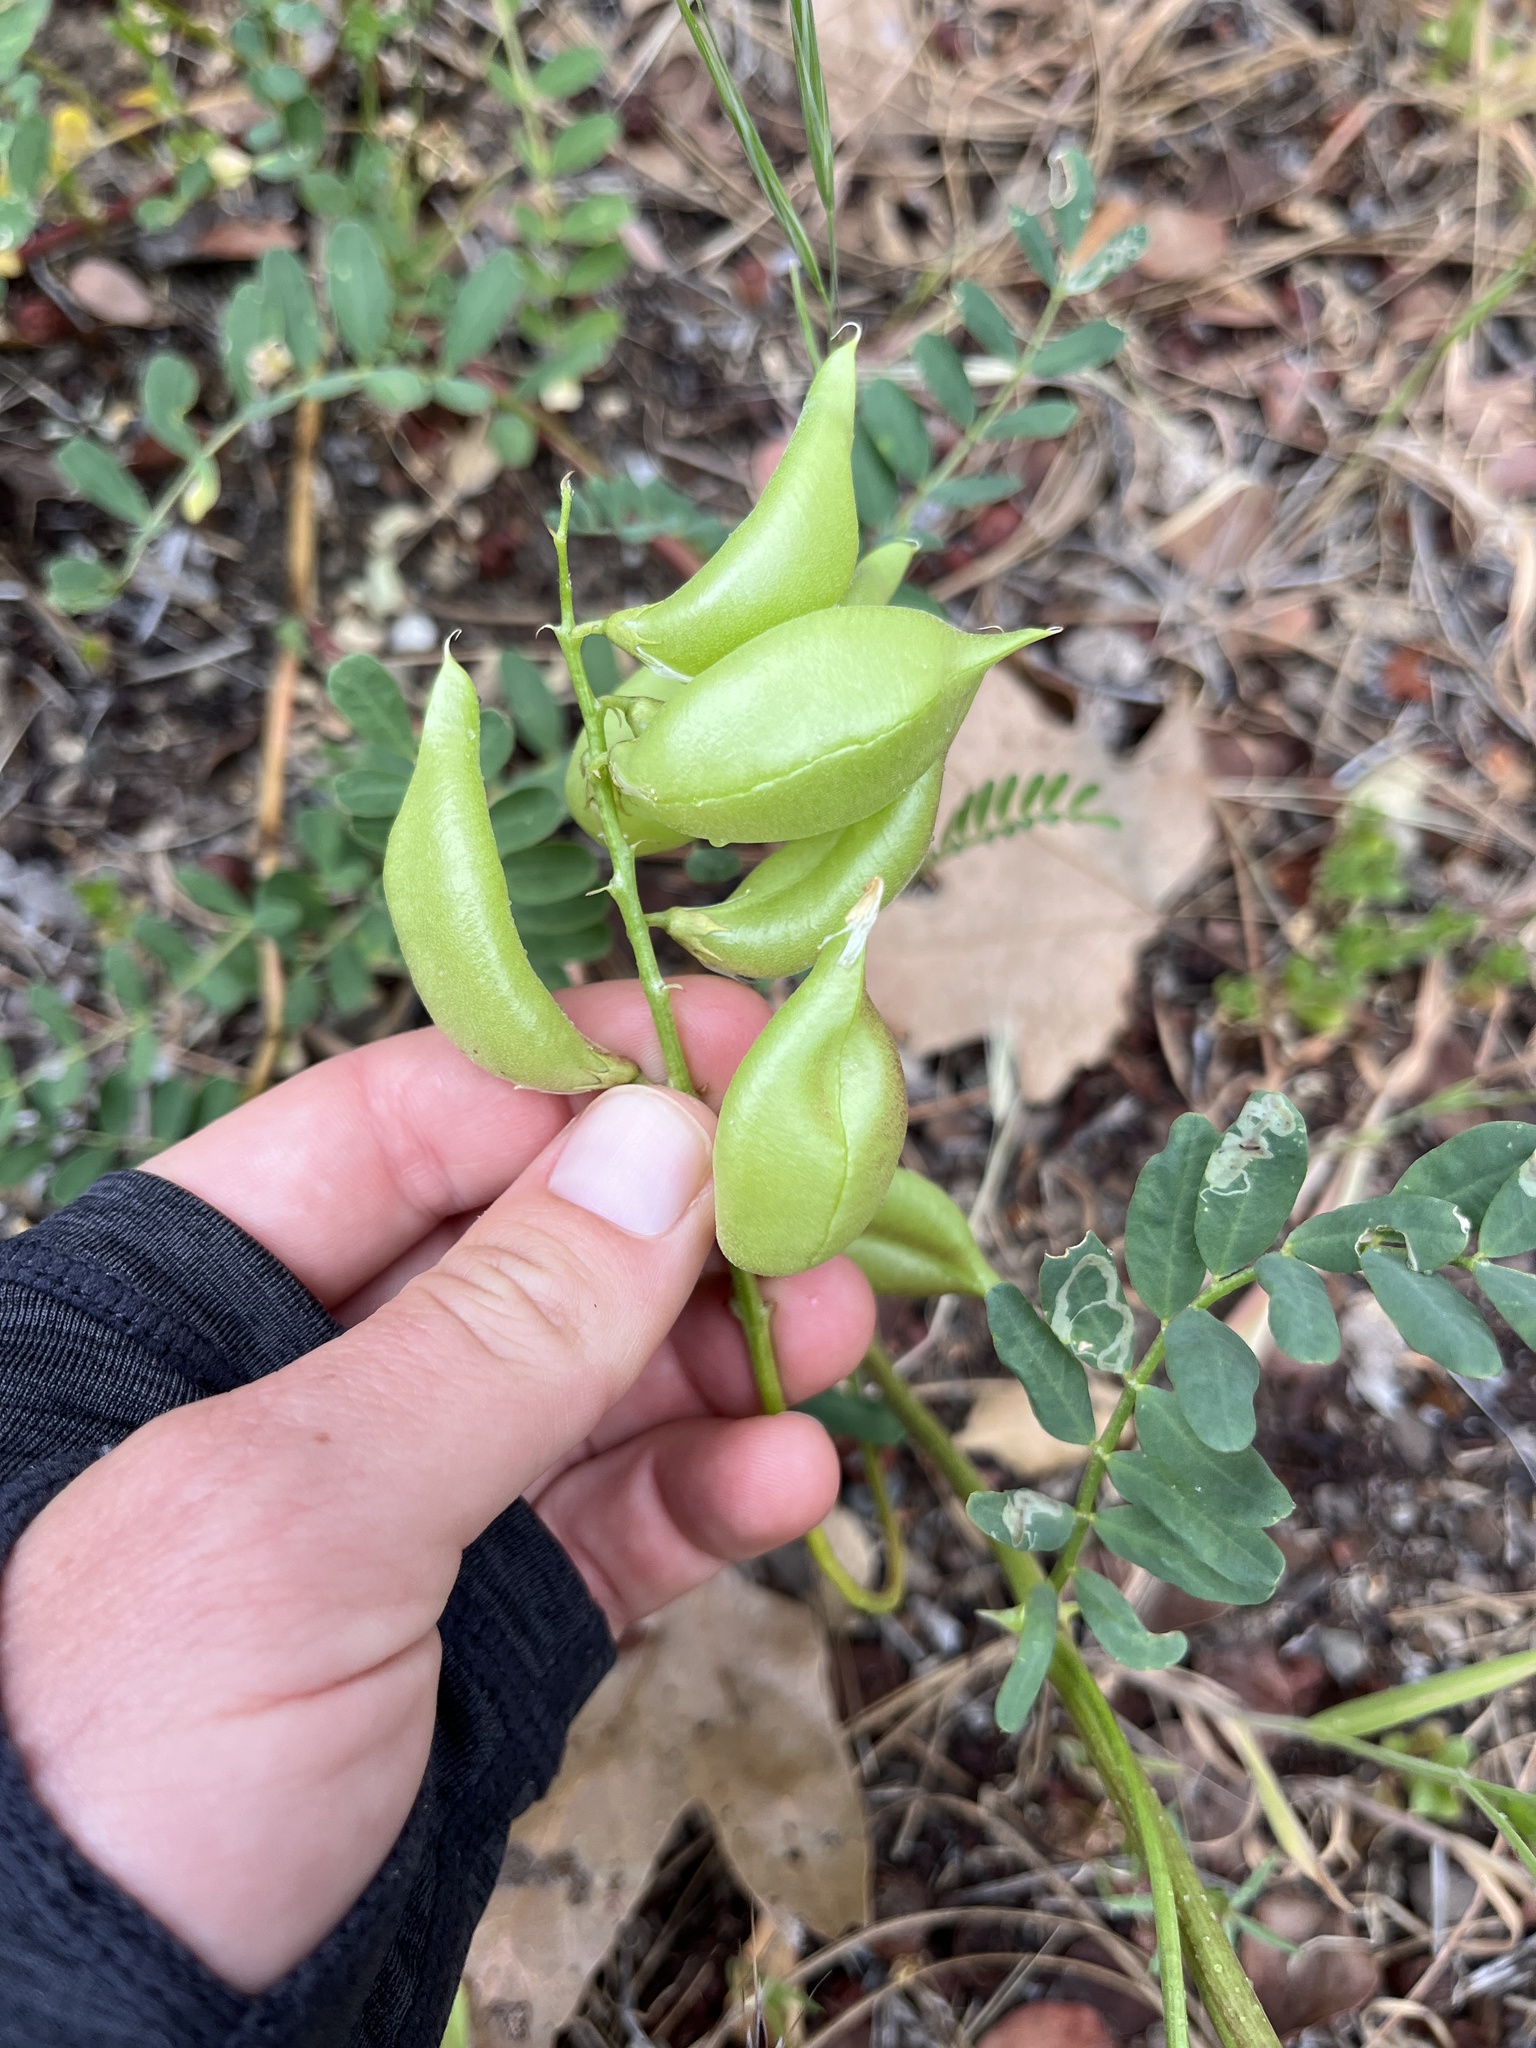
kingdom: Plantae
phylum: Tracheophyta
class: Magnoliopsida
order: Fabales
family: Fabaceae
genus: Astragalus
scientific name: Astragalus douglasii
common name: Jacumba milkvetch
